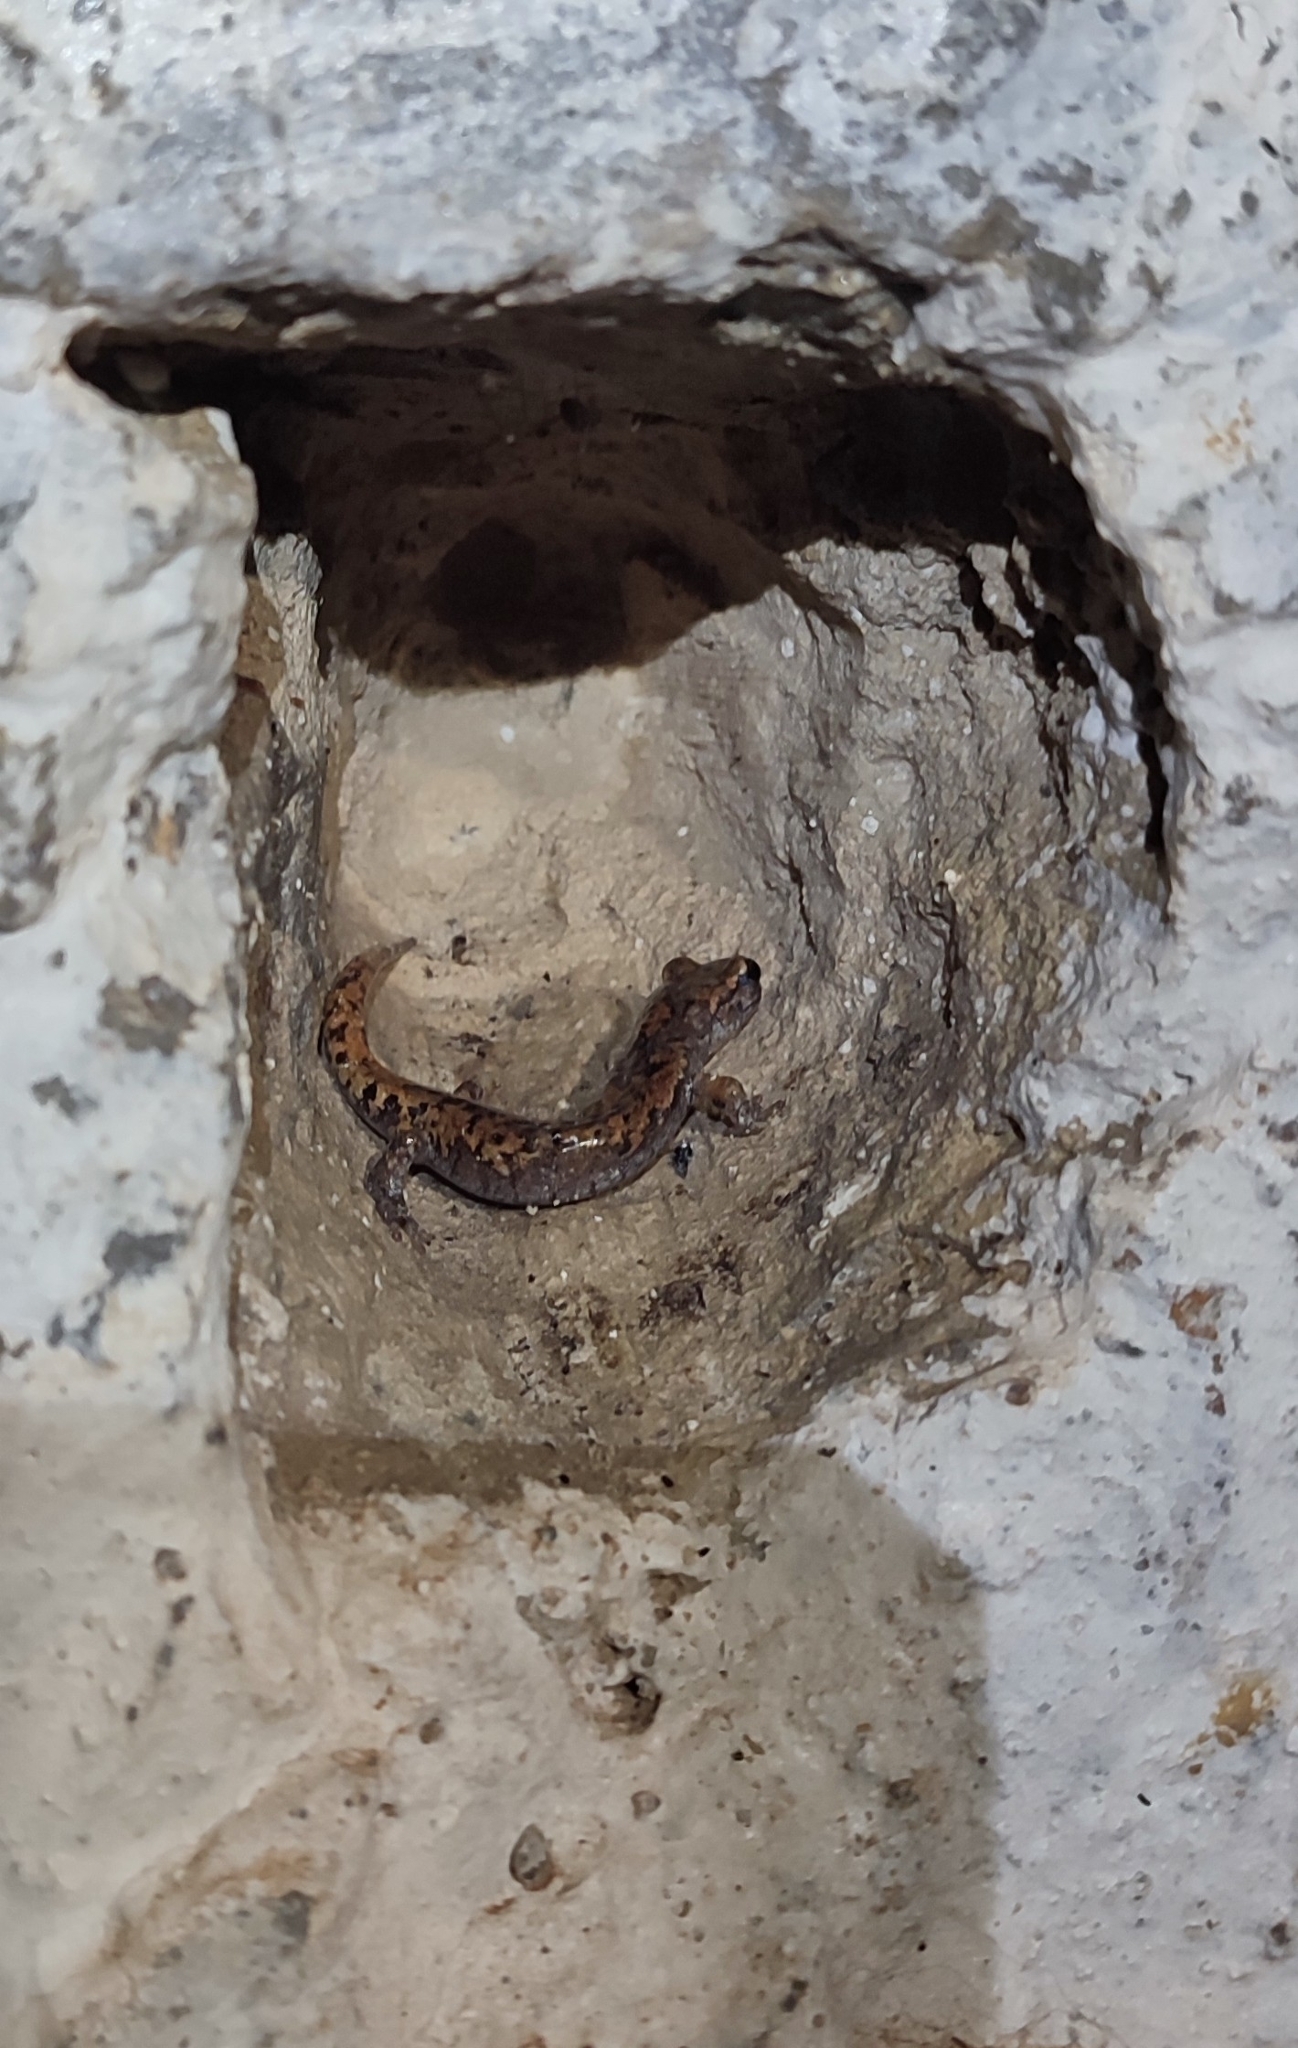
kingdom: Animalia
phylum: Chordata
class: Amphibia
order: Caudata
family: Plethodontidae
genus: Speleomantes
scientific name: Speleomantes strinatii
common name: French cave salamander
